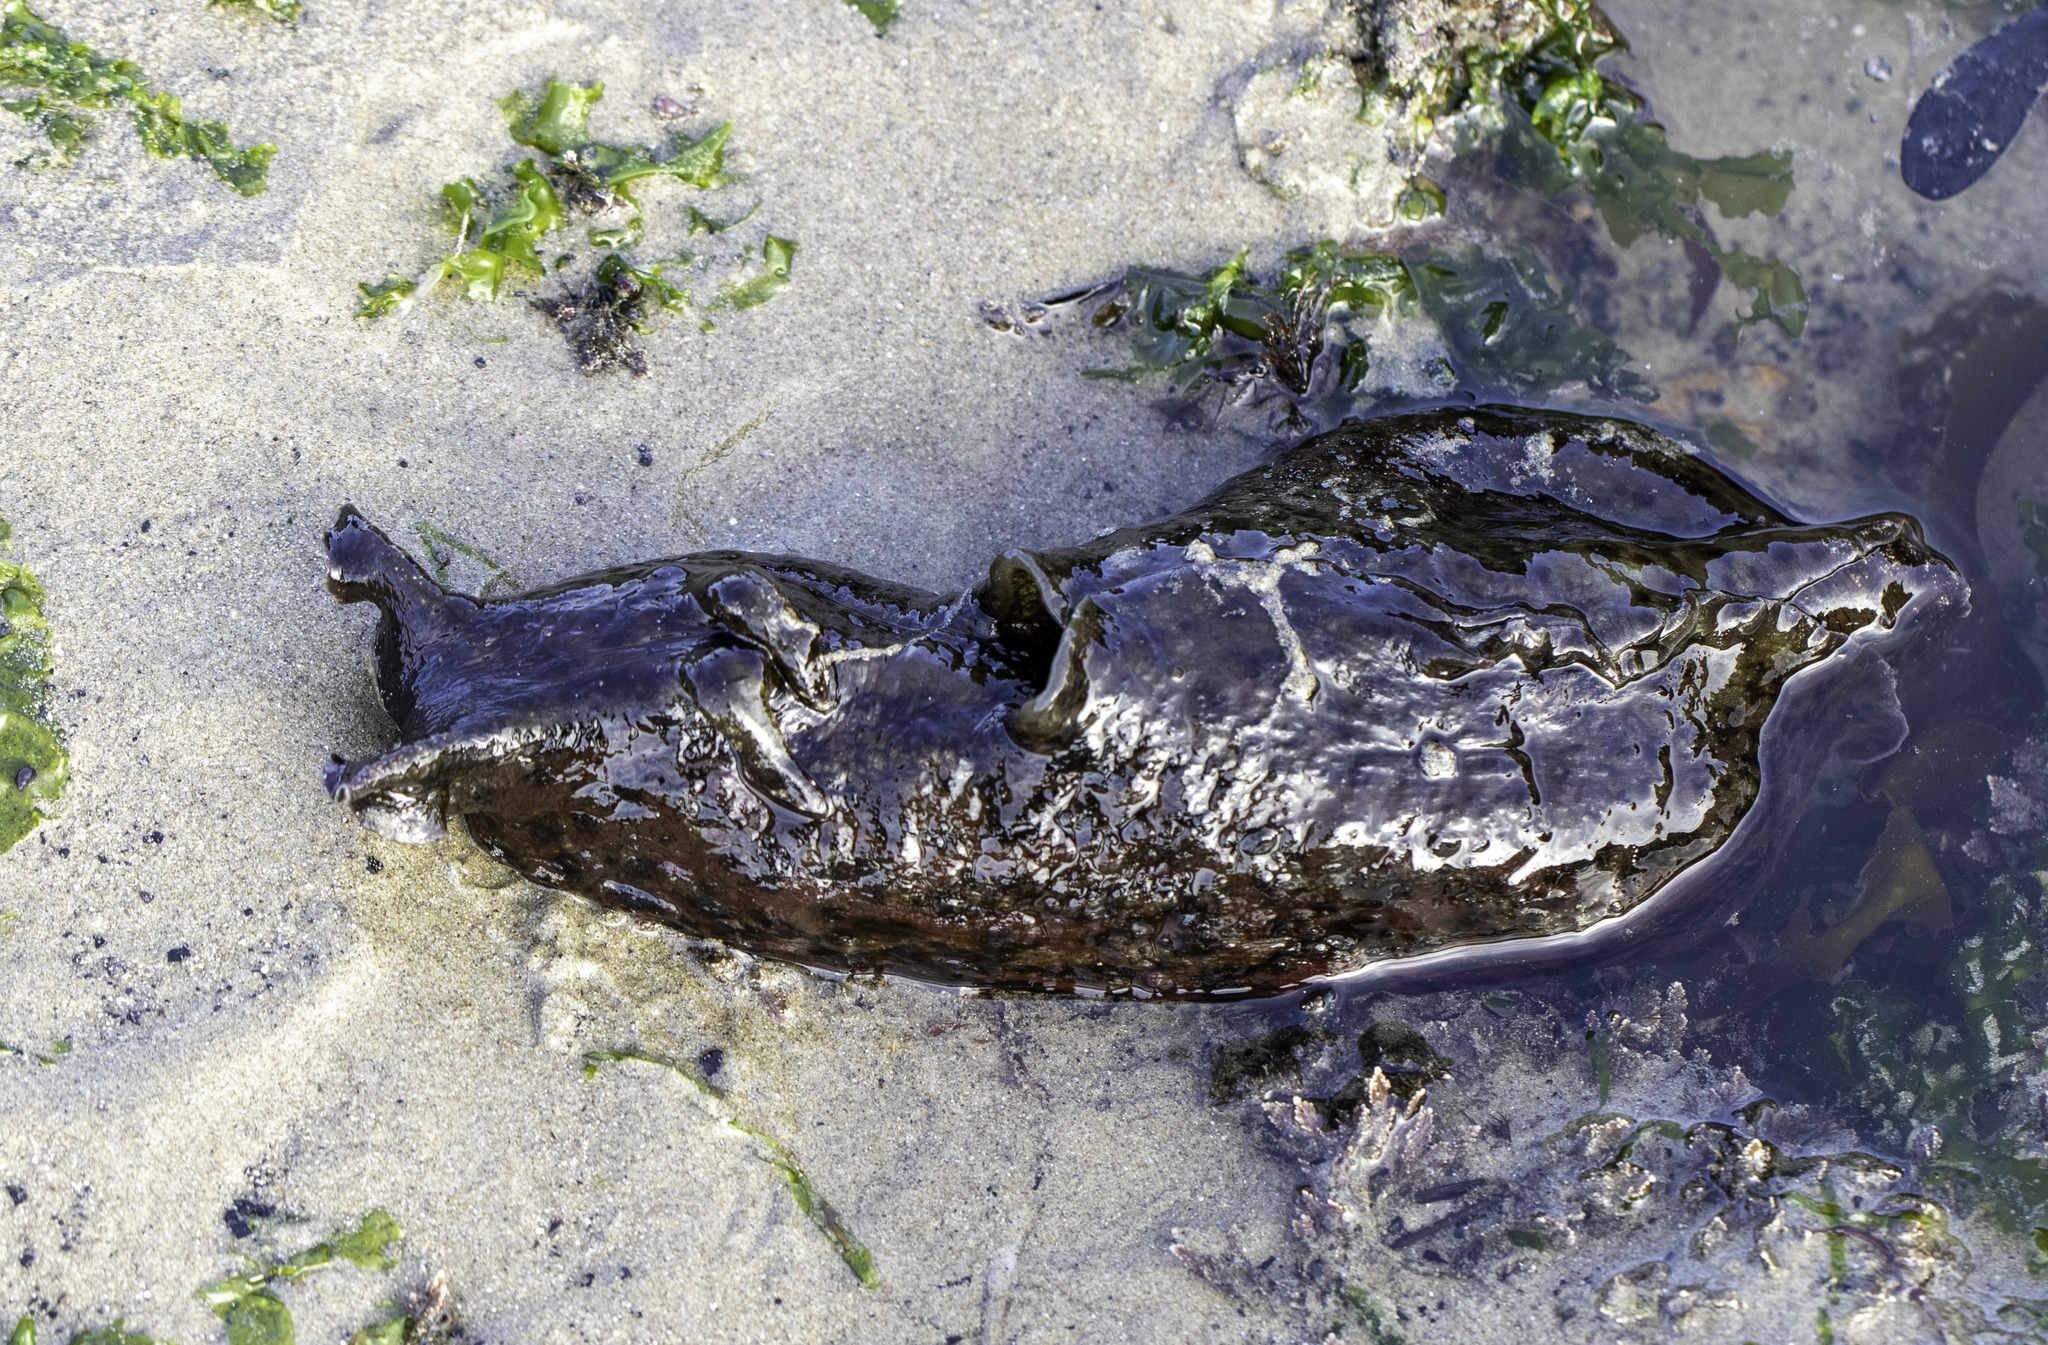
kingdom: Animalia
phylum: Mollusca
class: Gastropoda
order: Aplysiida
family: Aplysiidae
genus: Aplysia
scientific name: Aplysia californica
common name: California seahare
